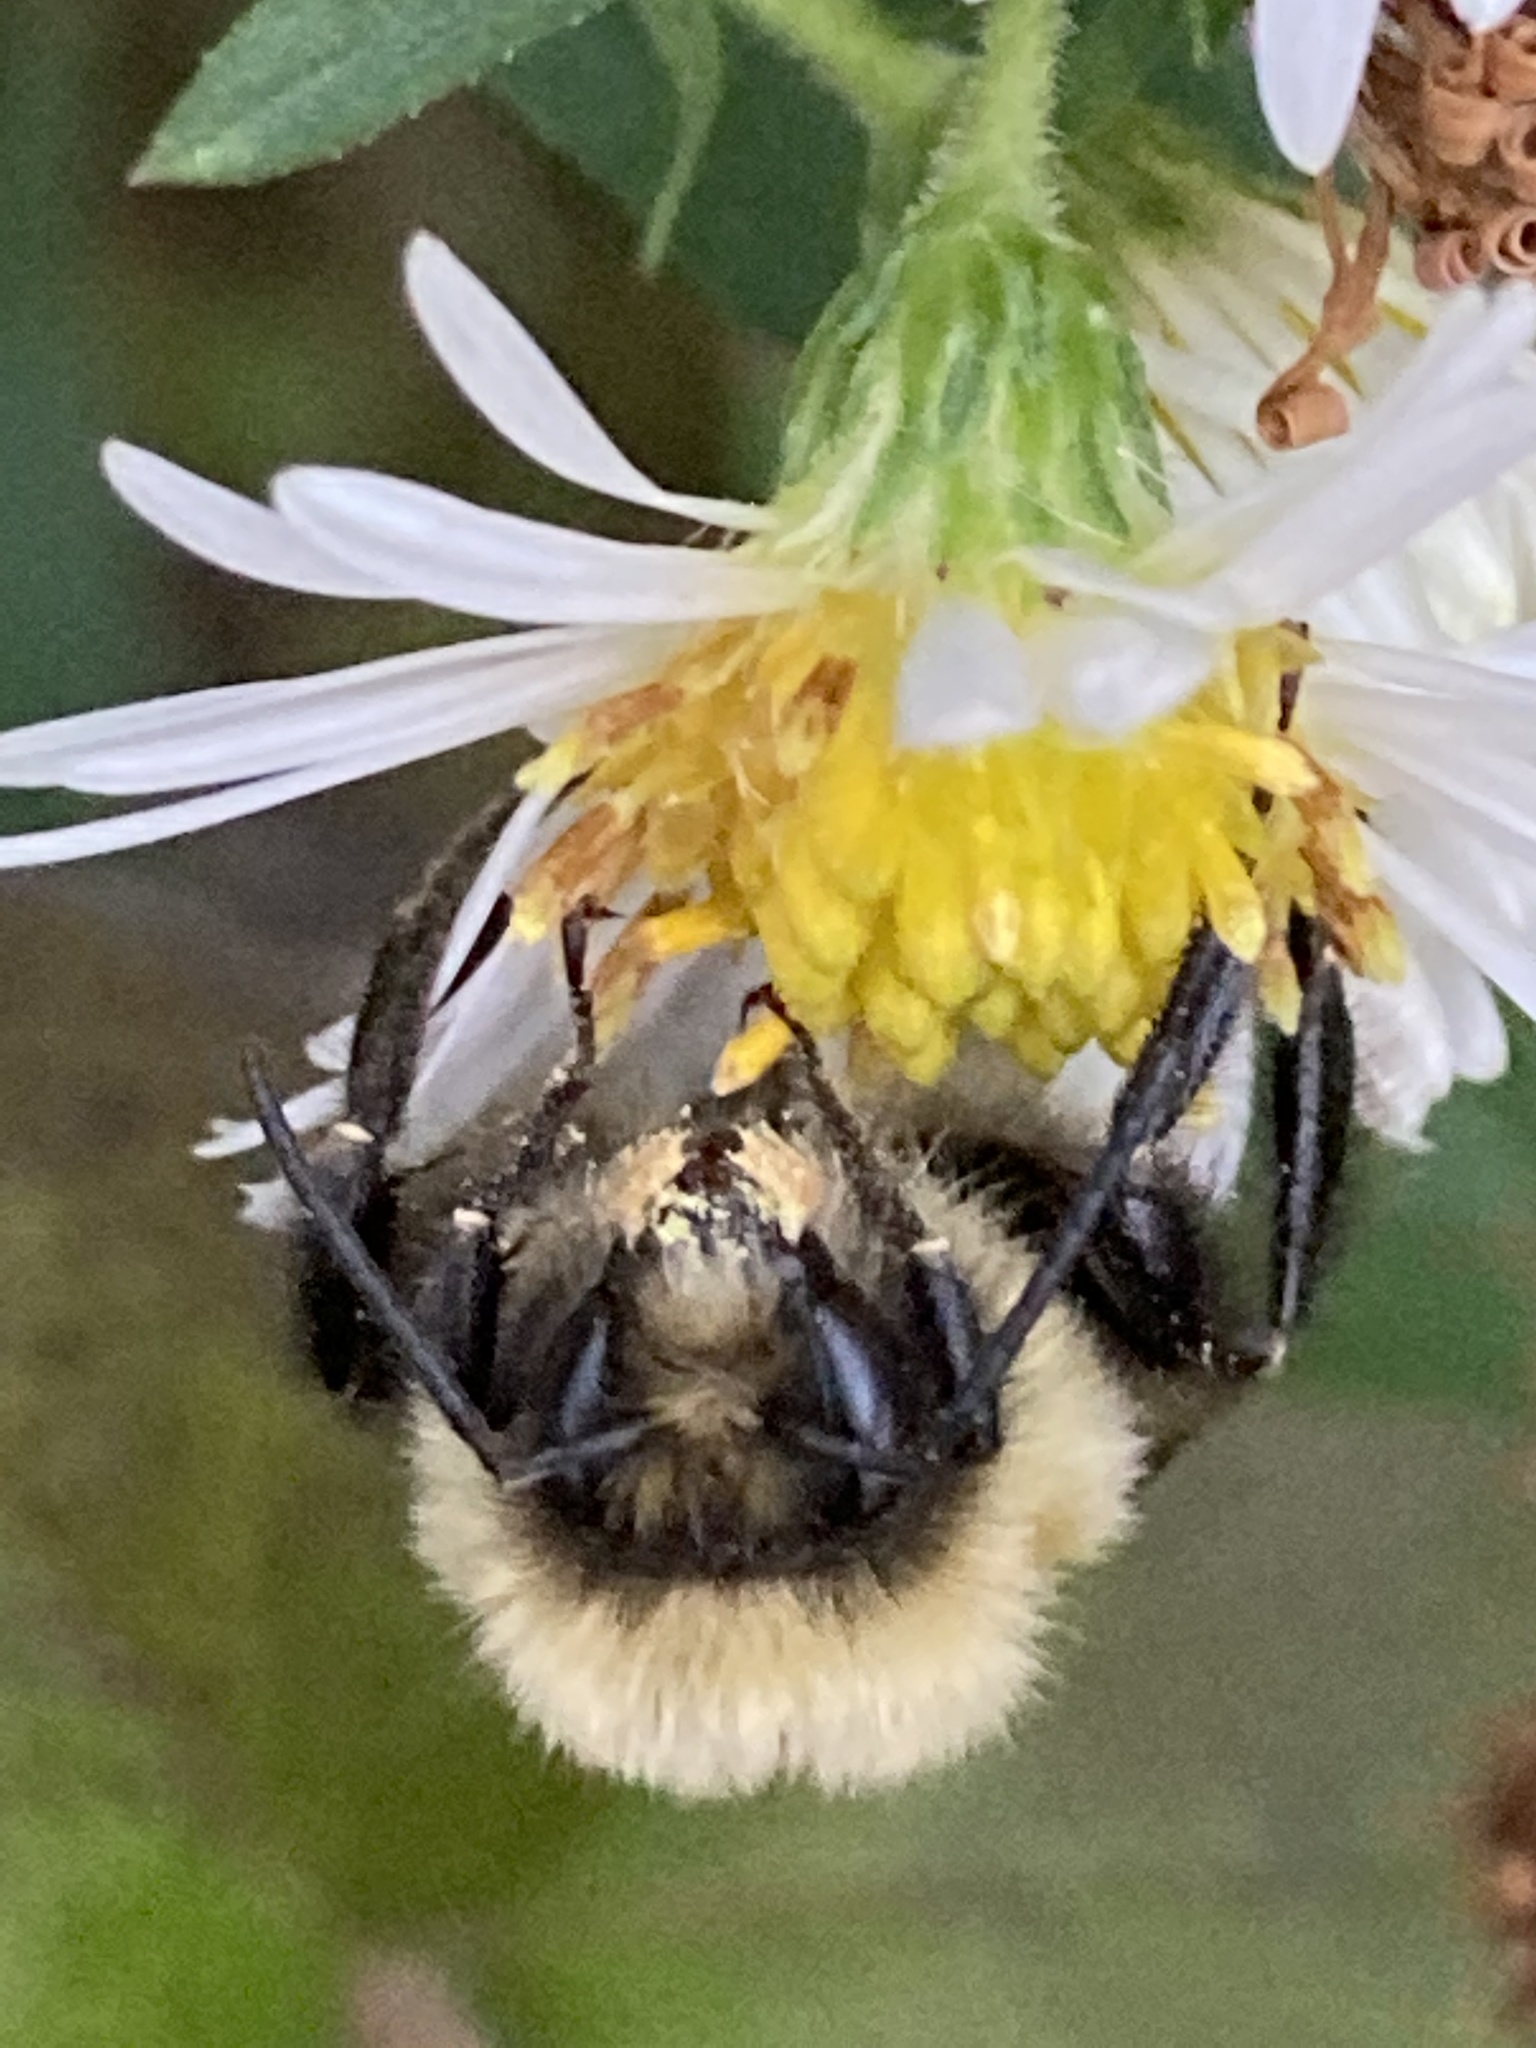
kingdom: Animalia
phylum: Arthropoda
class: Insecta
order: Hymenoptera
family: Apidae
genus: Bombus
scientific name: Bombus impatiens
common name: Common eastern bumble bee
